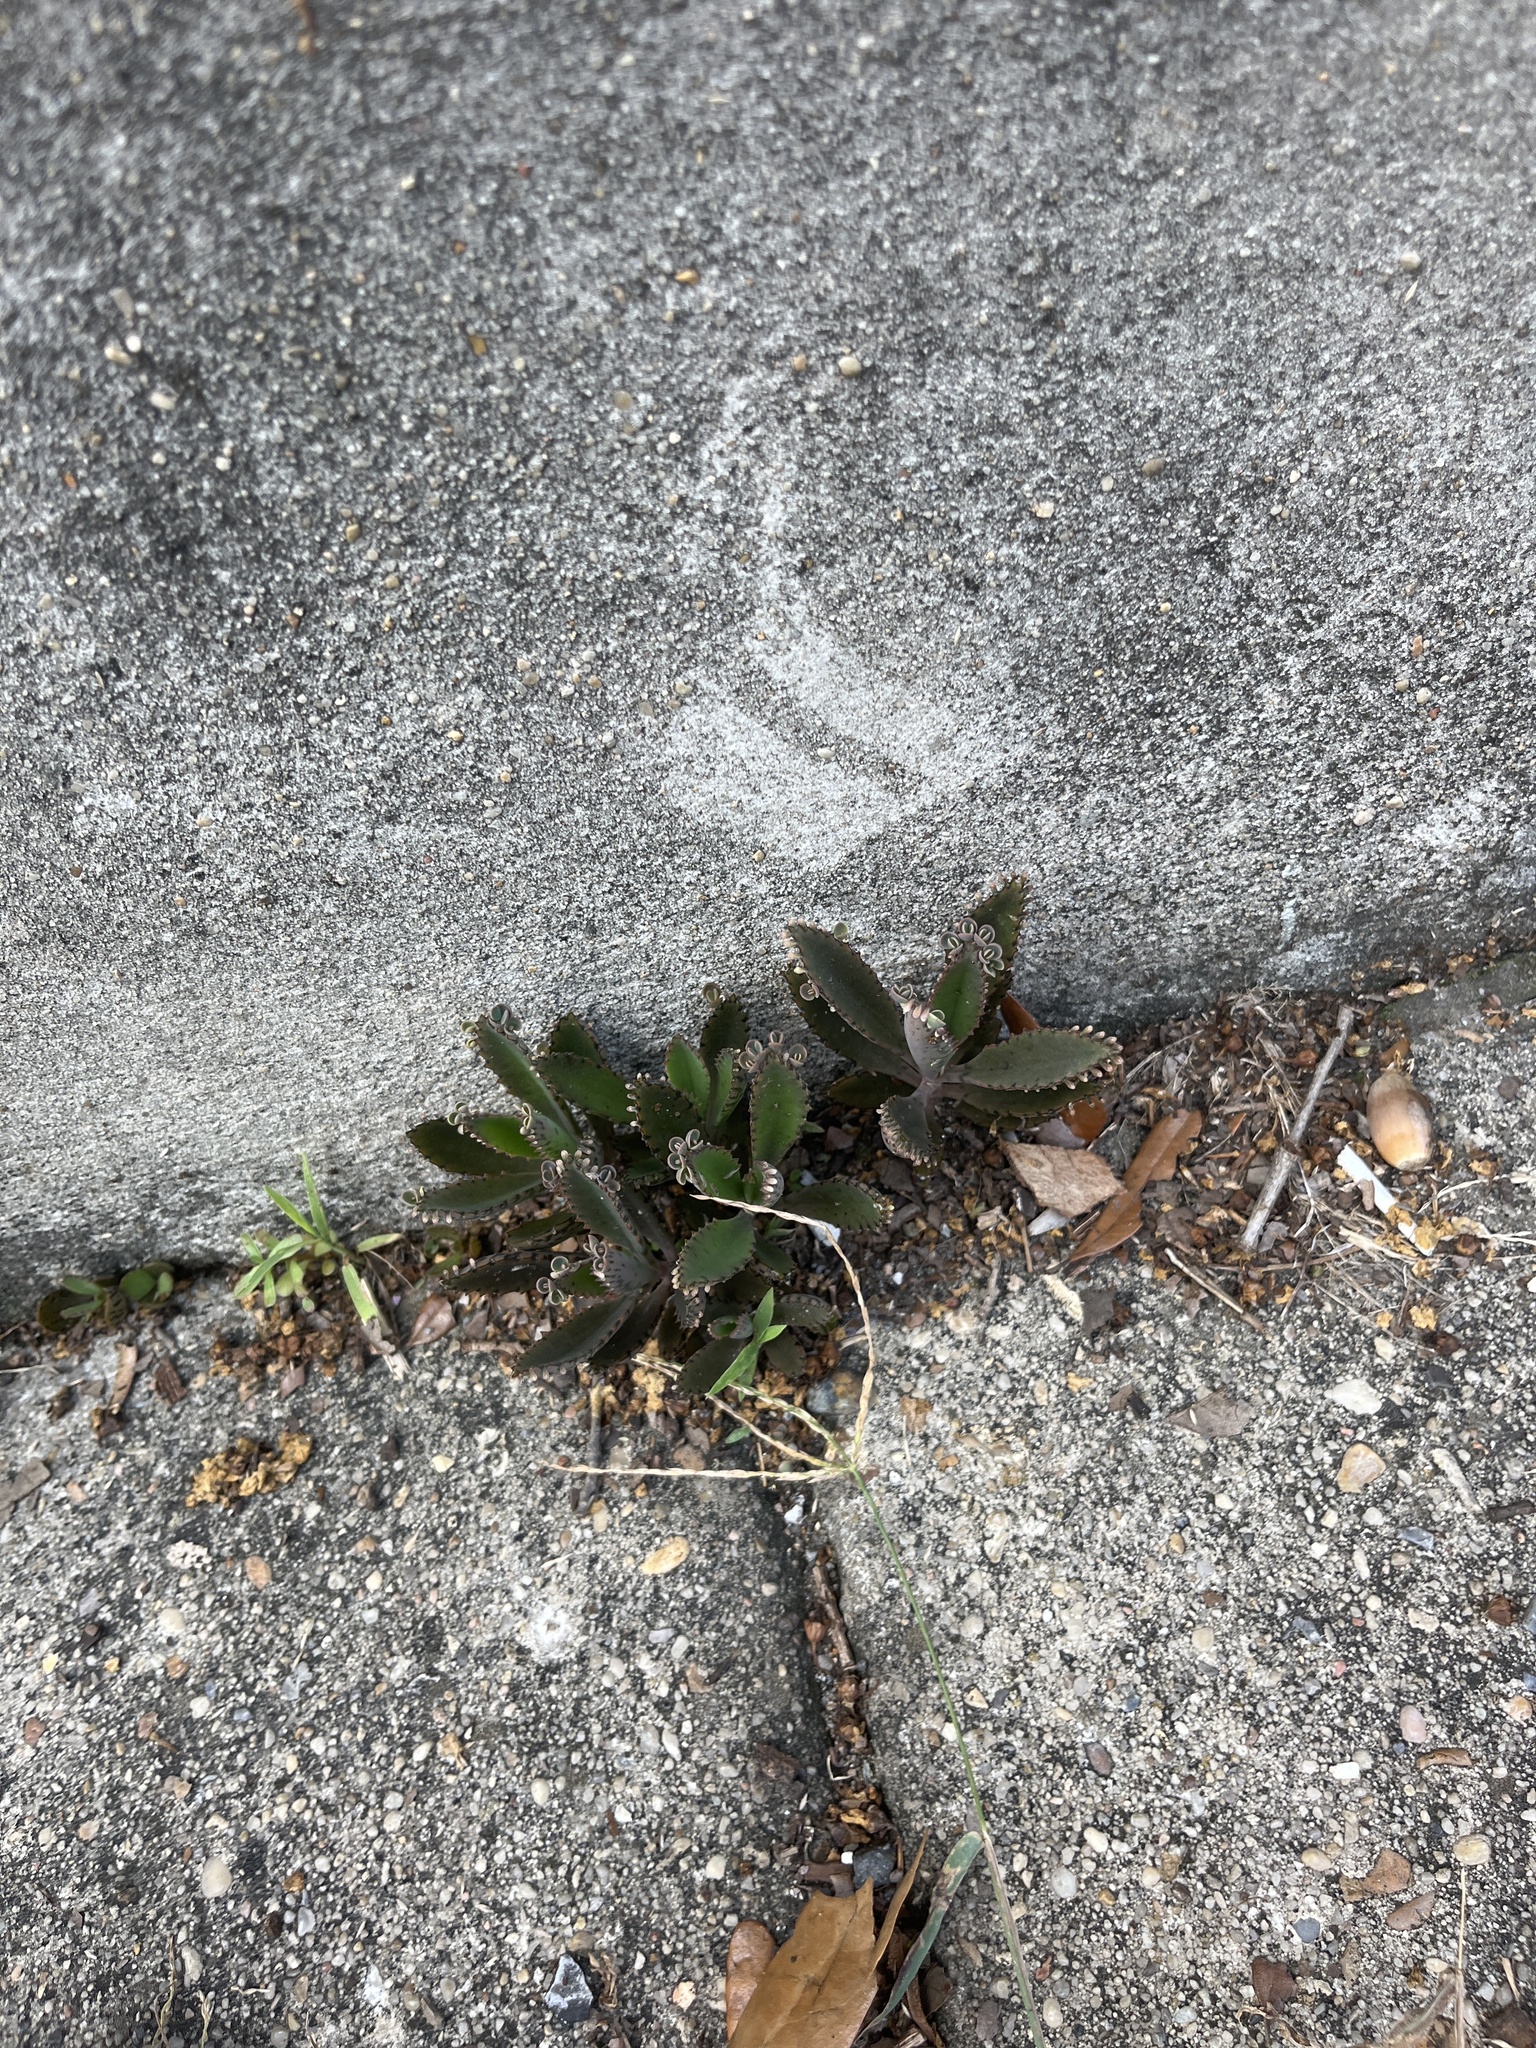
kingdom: Plantae
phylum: Tracheophyta
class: Magnoliopsida
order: Saxifragales
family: Crassulaceae
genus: Kalanchoe
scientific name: Kalanchoe houghtonii
